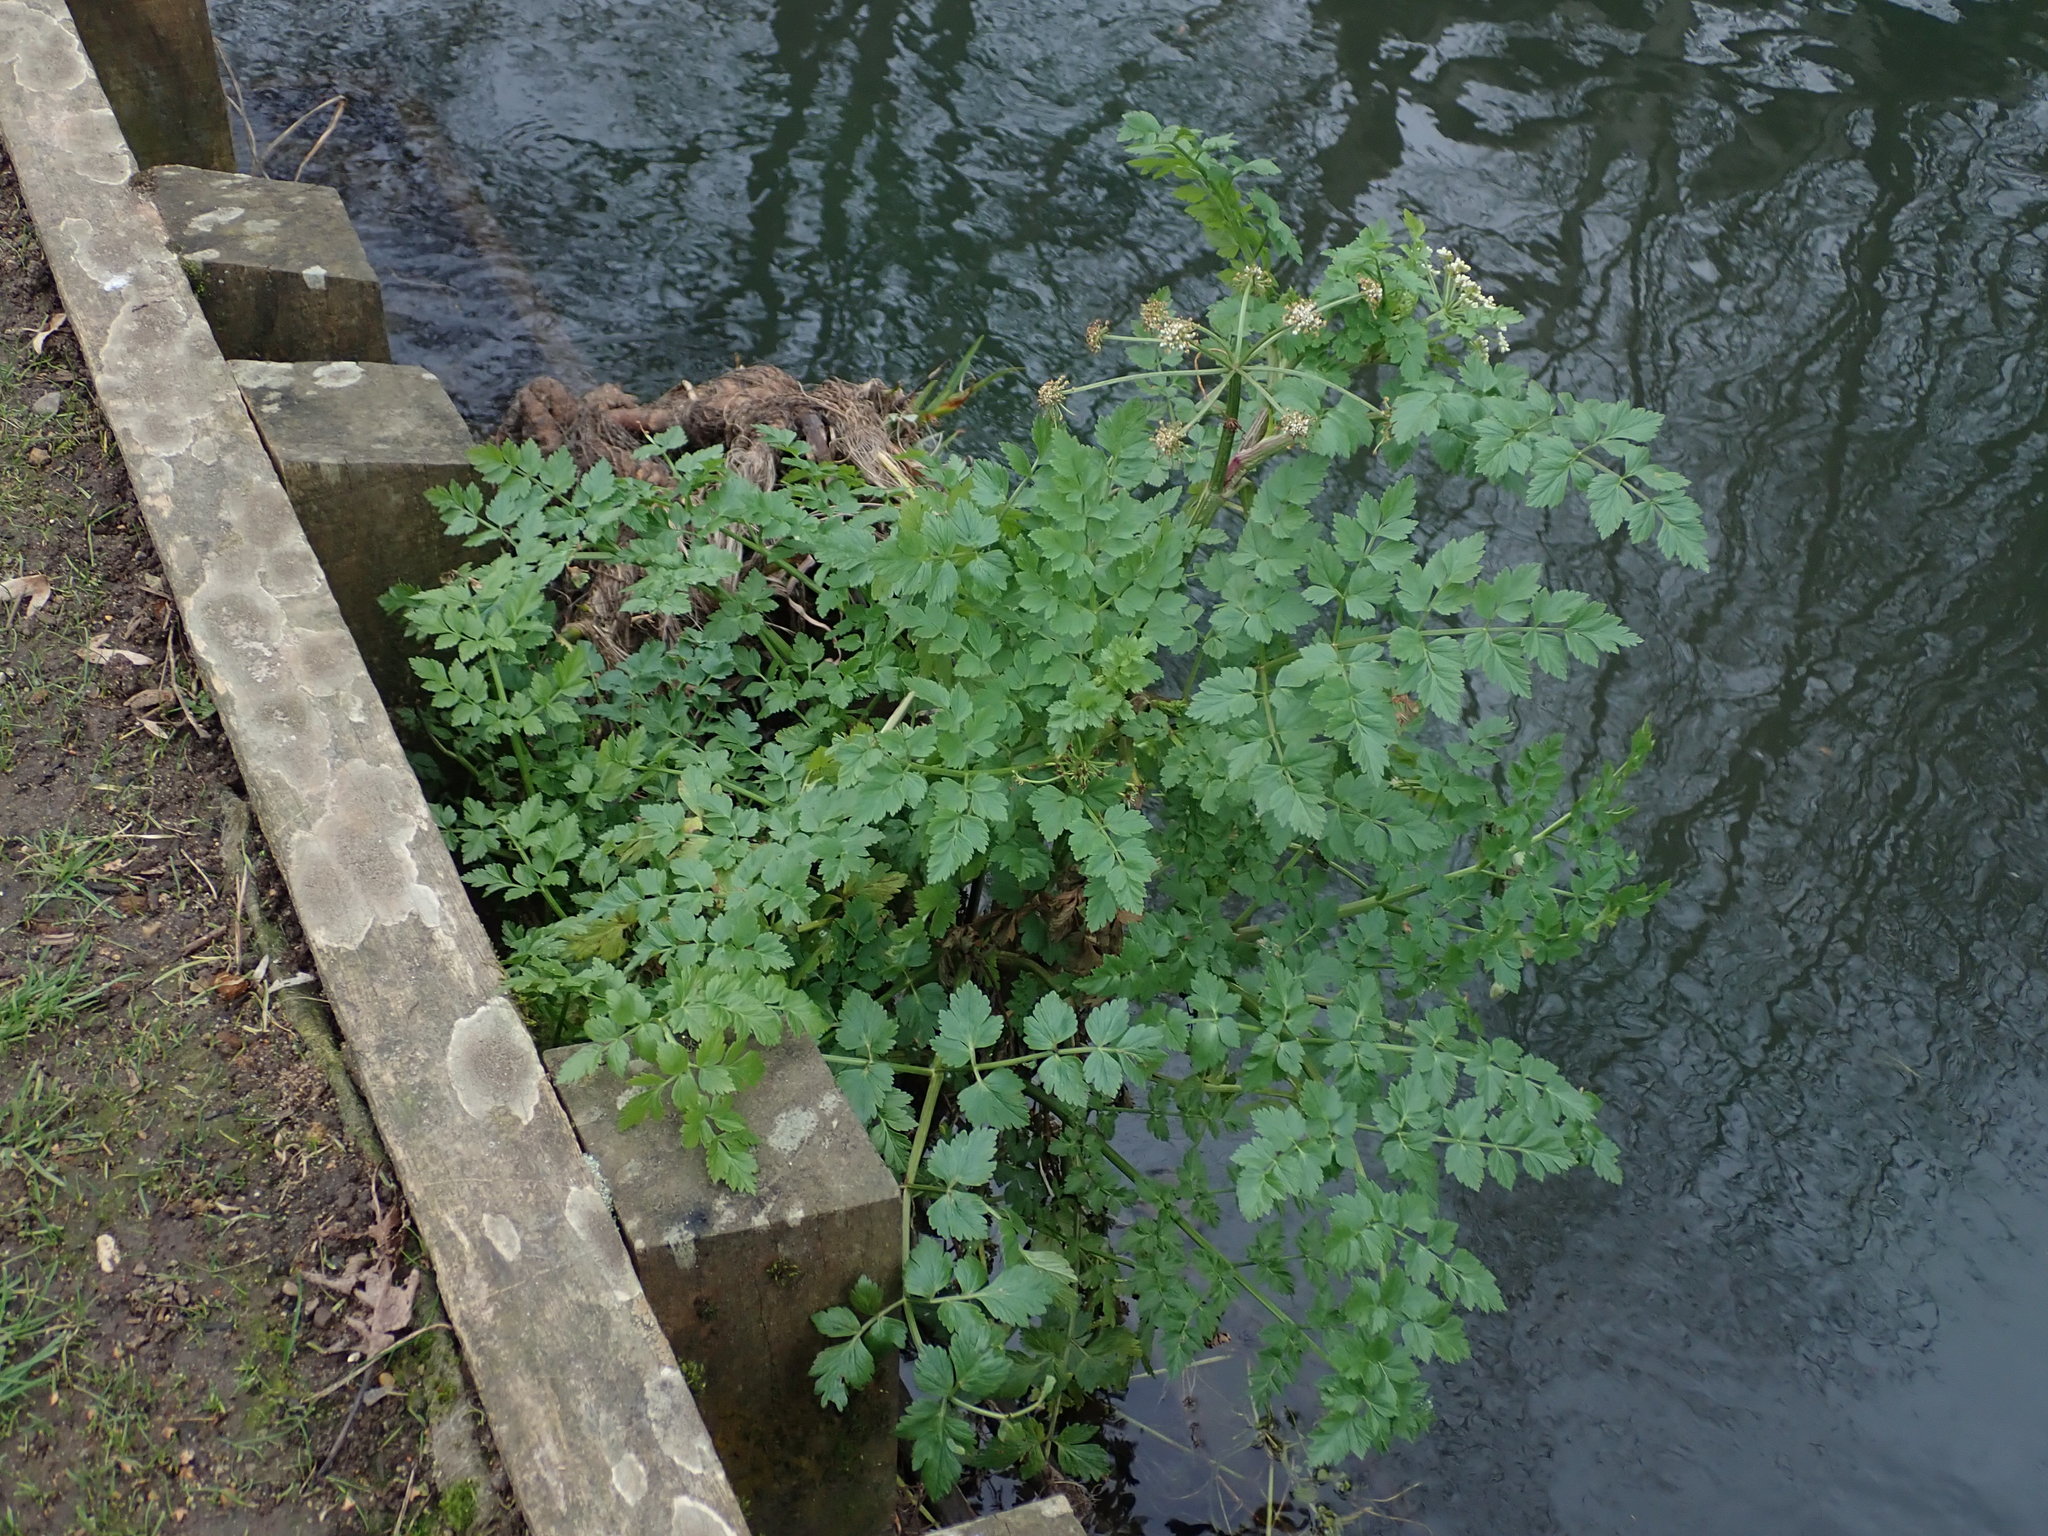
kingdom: Plantae
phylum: Tracheophyta
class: Magnoliopsida
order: Apiales
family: Apiaceae
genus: Oenanthe
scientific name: Oenanthe crocata
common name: Hemlock water-dropwort
